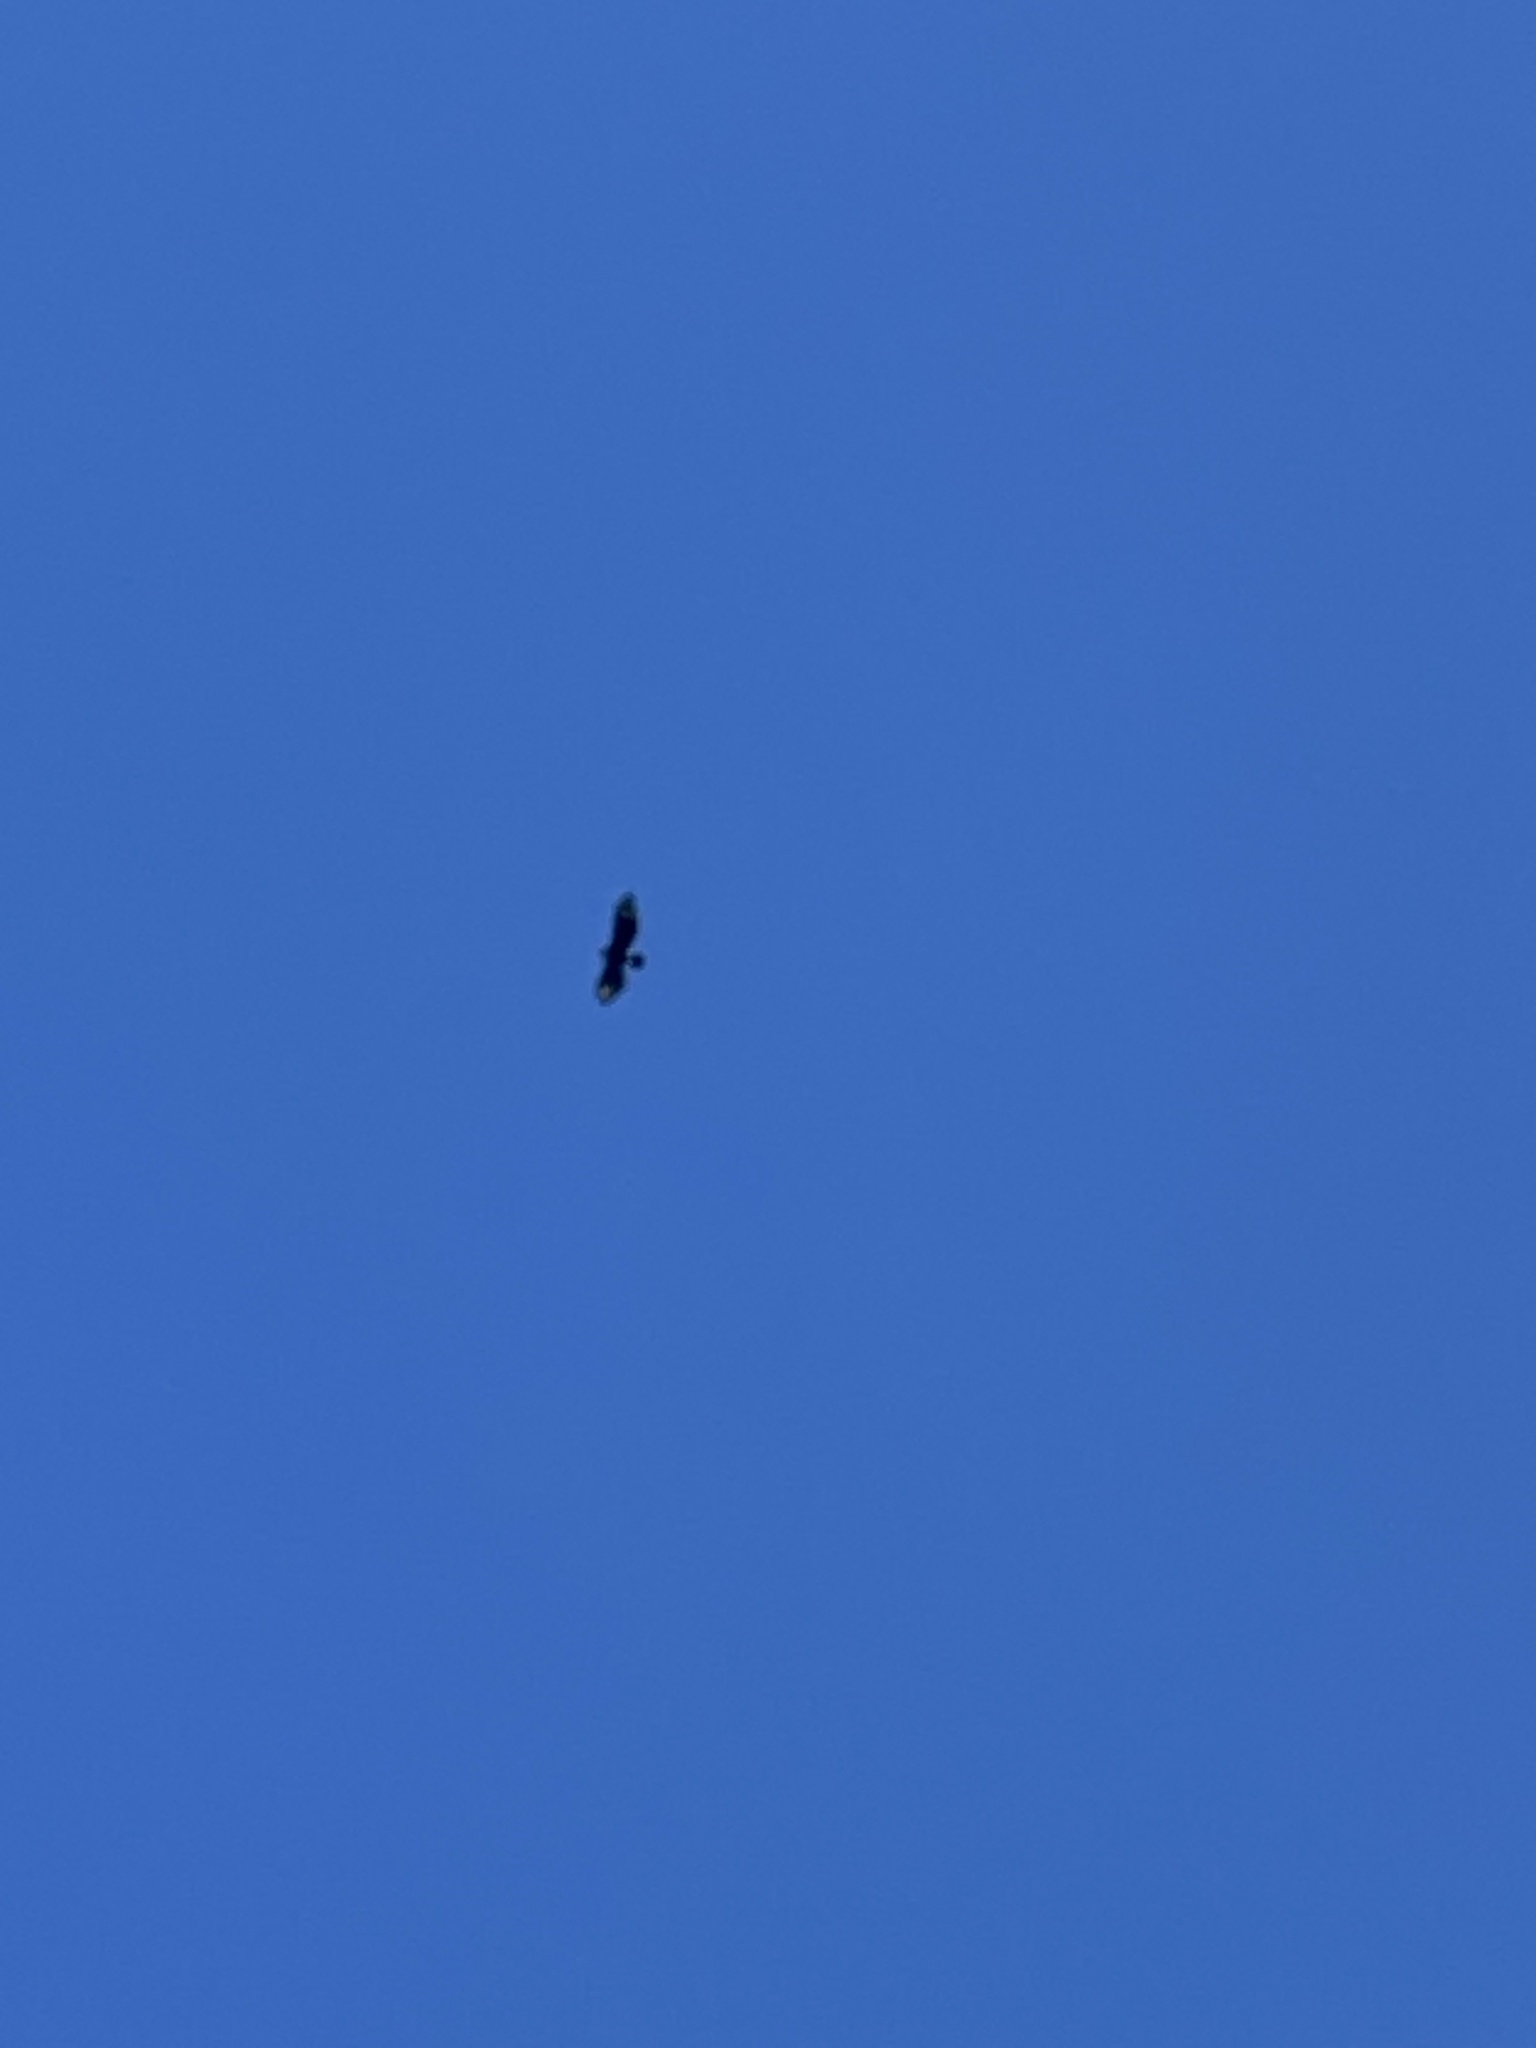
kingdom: Animalia
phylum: Chordata
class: Aves
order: Accipitriformes
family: Accipitridae
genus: Aquila
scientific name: Aquila verreauxii
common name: Verreaux's eagle
